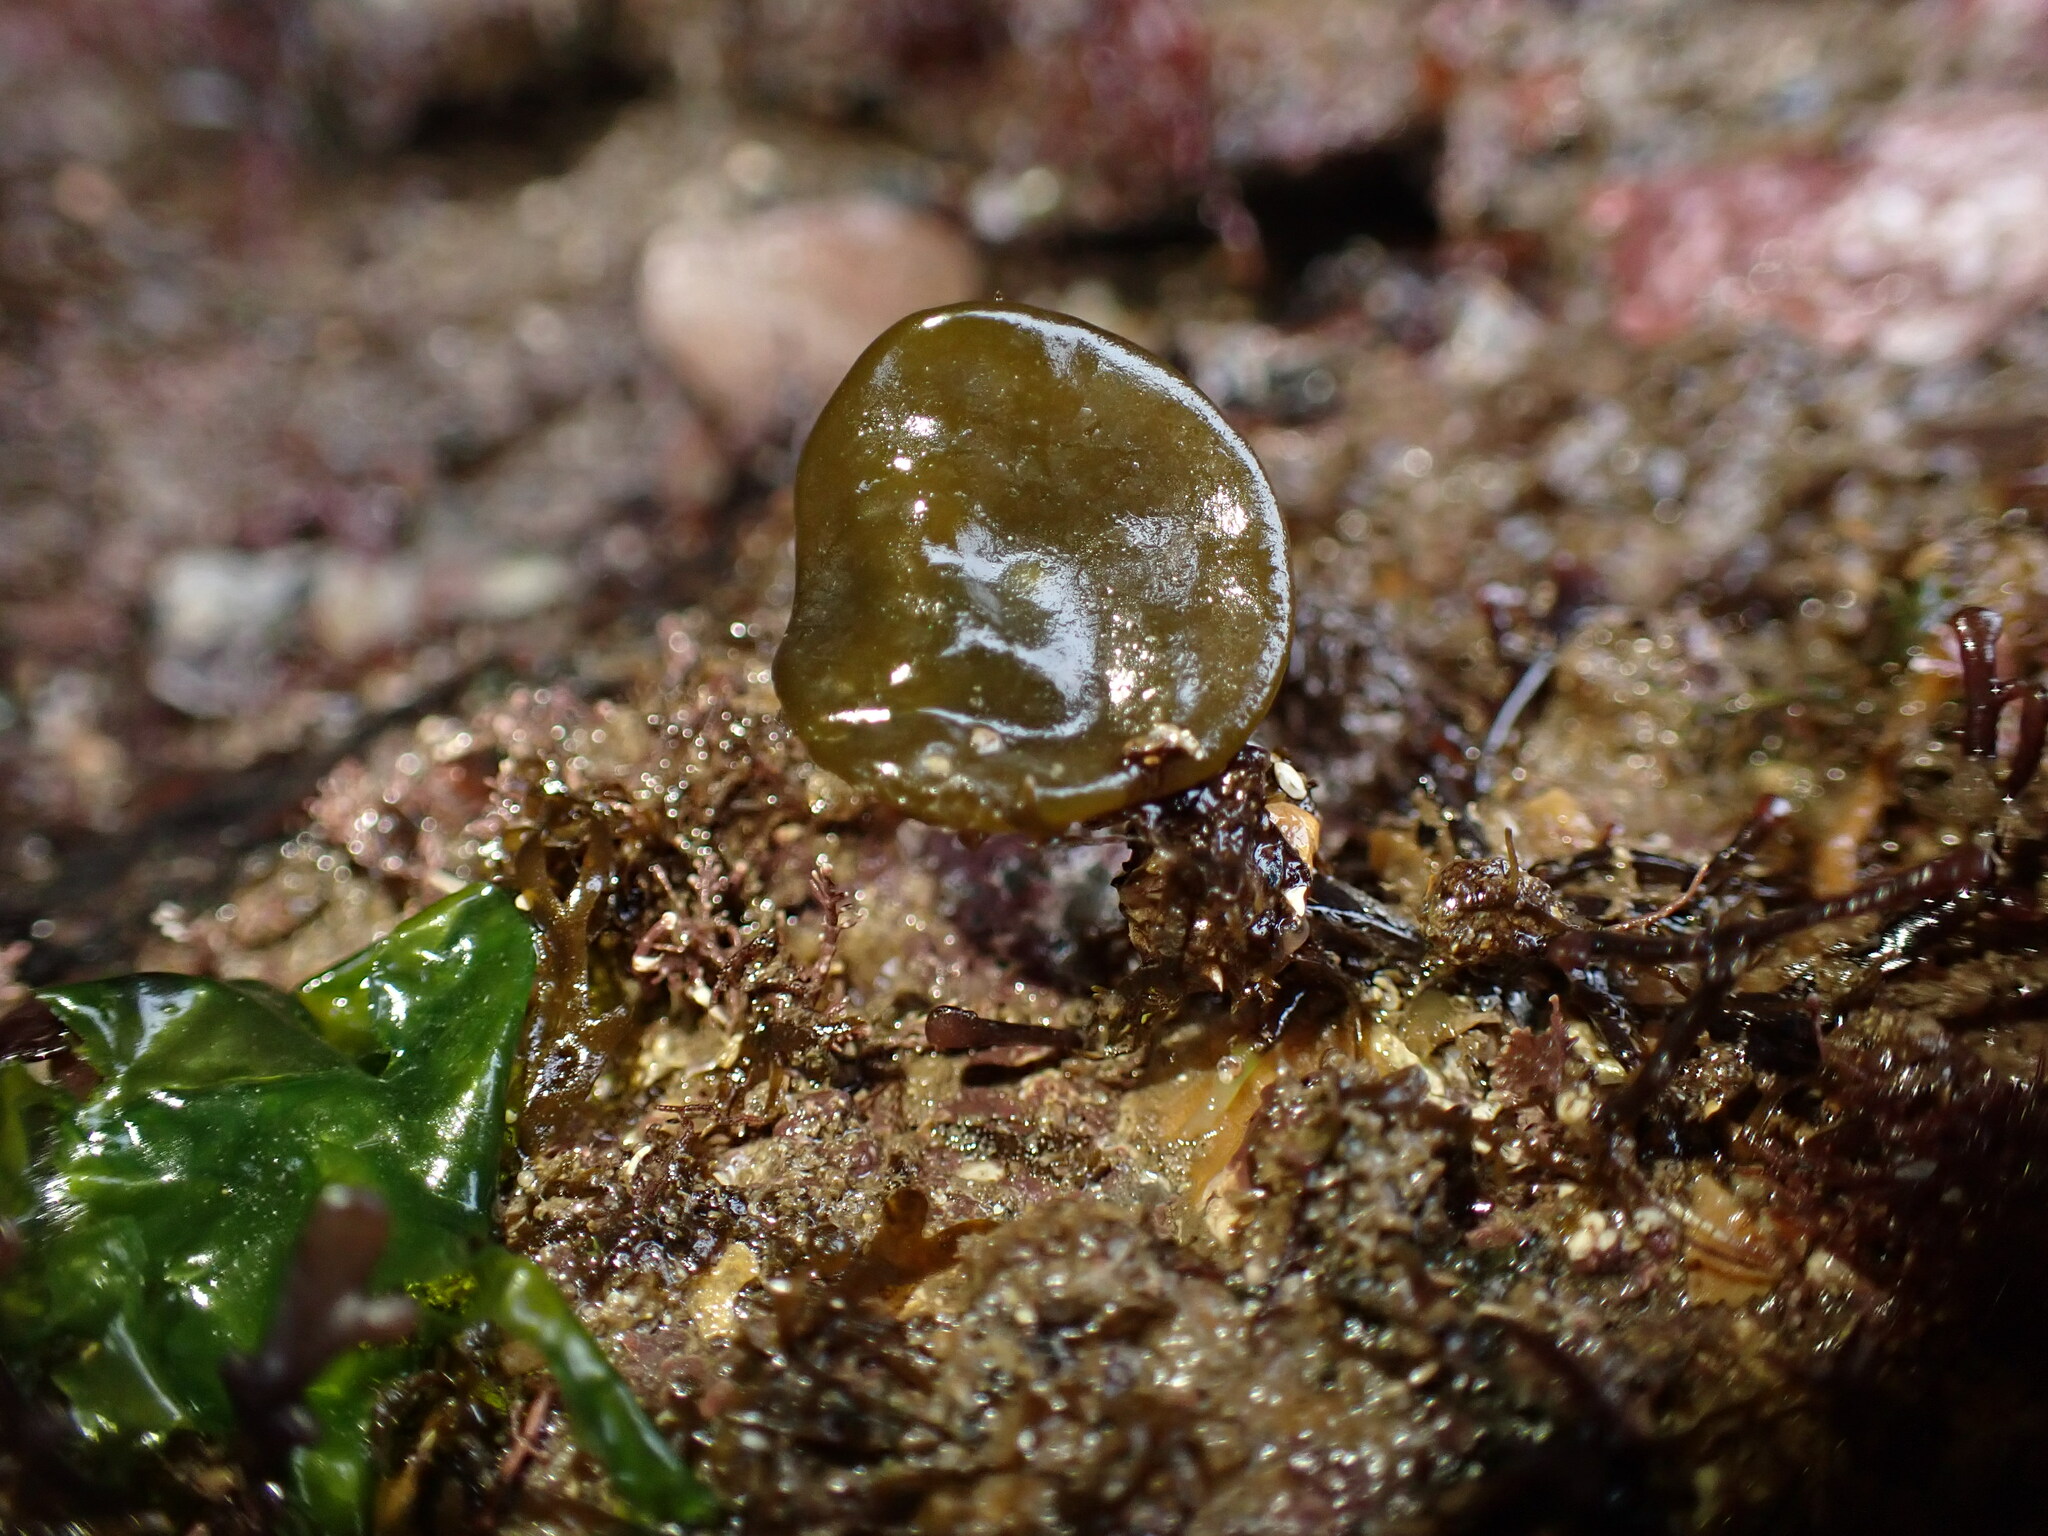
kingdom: Chromista
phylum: Ochrophyta
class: Phaeophyceae
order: Fucales
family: Himanthaliaceae
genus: Himanthalia
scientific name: Himanthalia elongata
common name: Sea-thong
